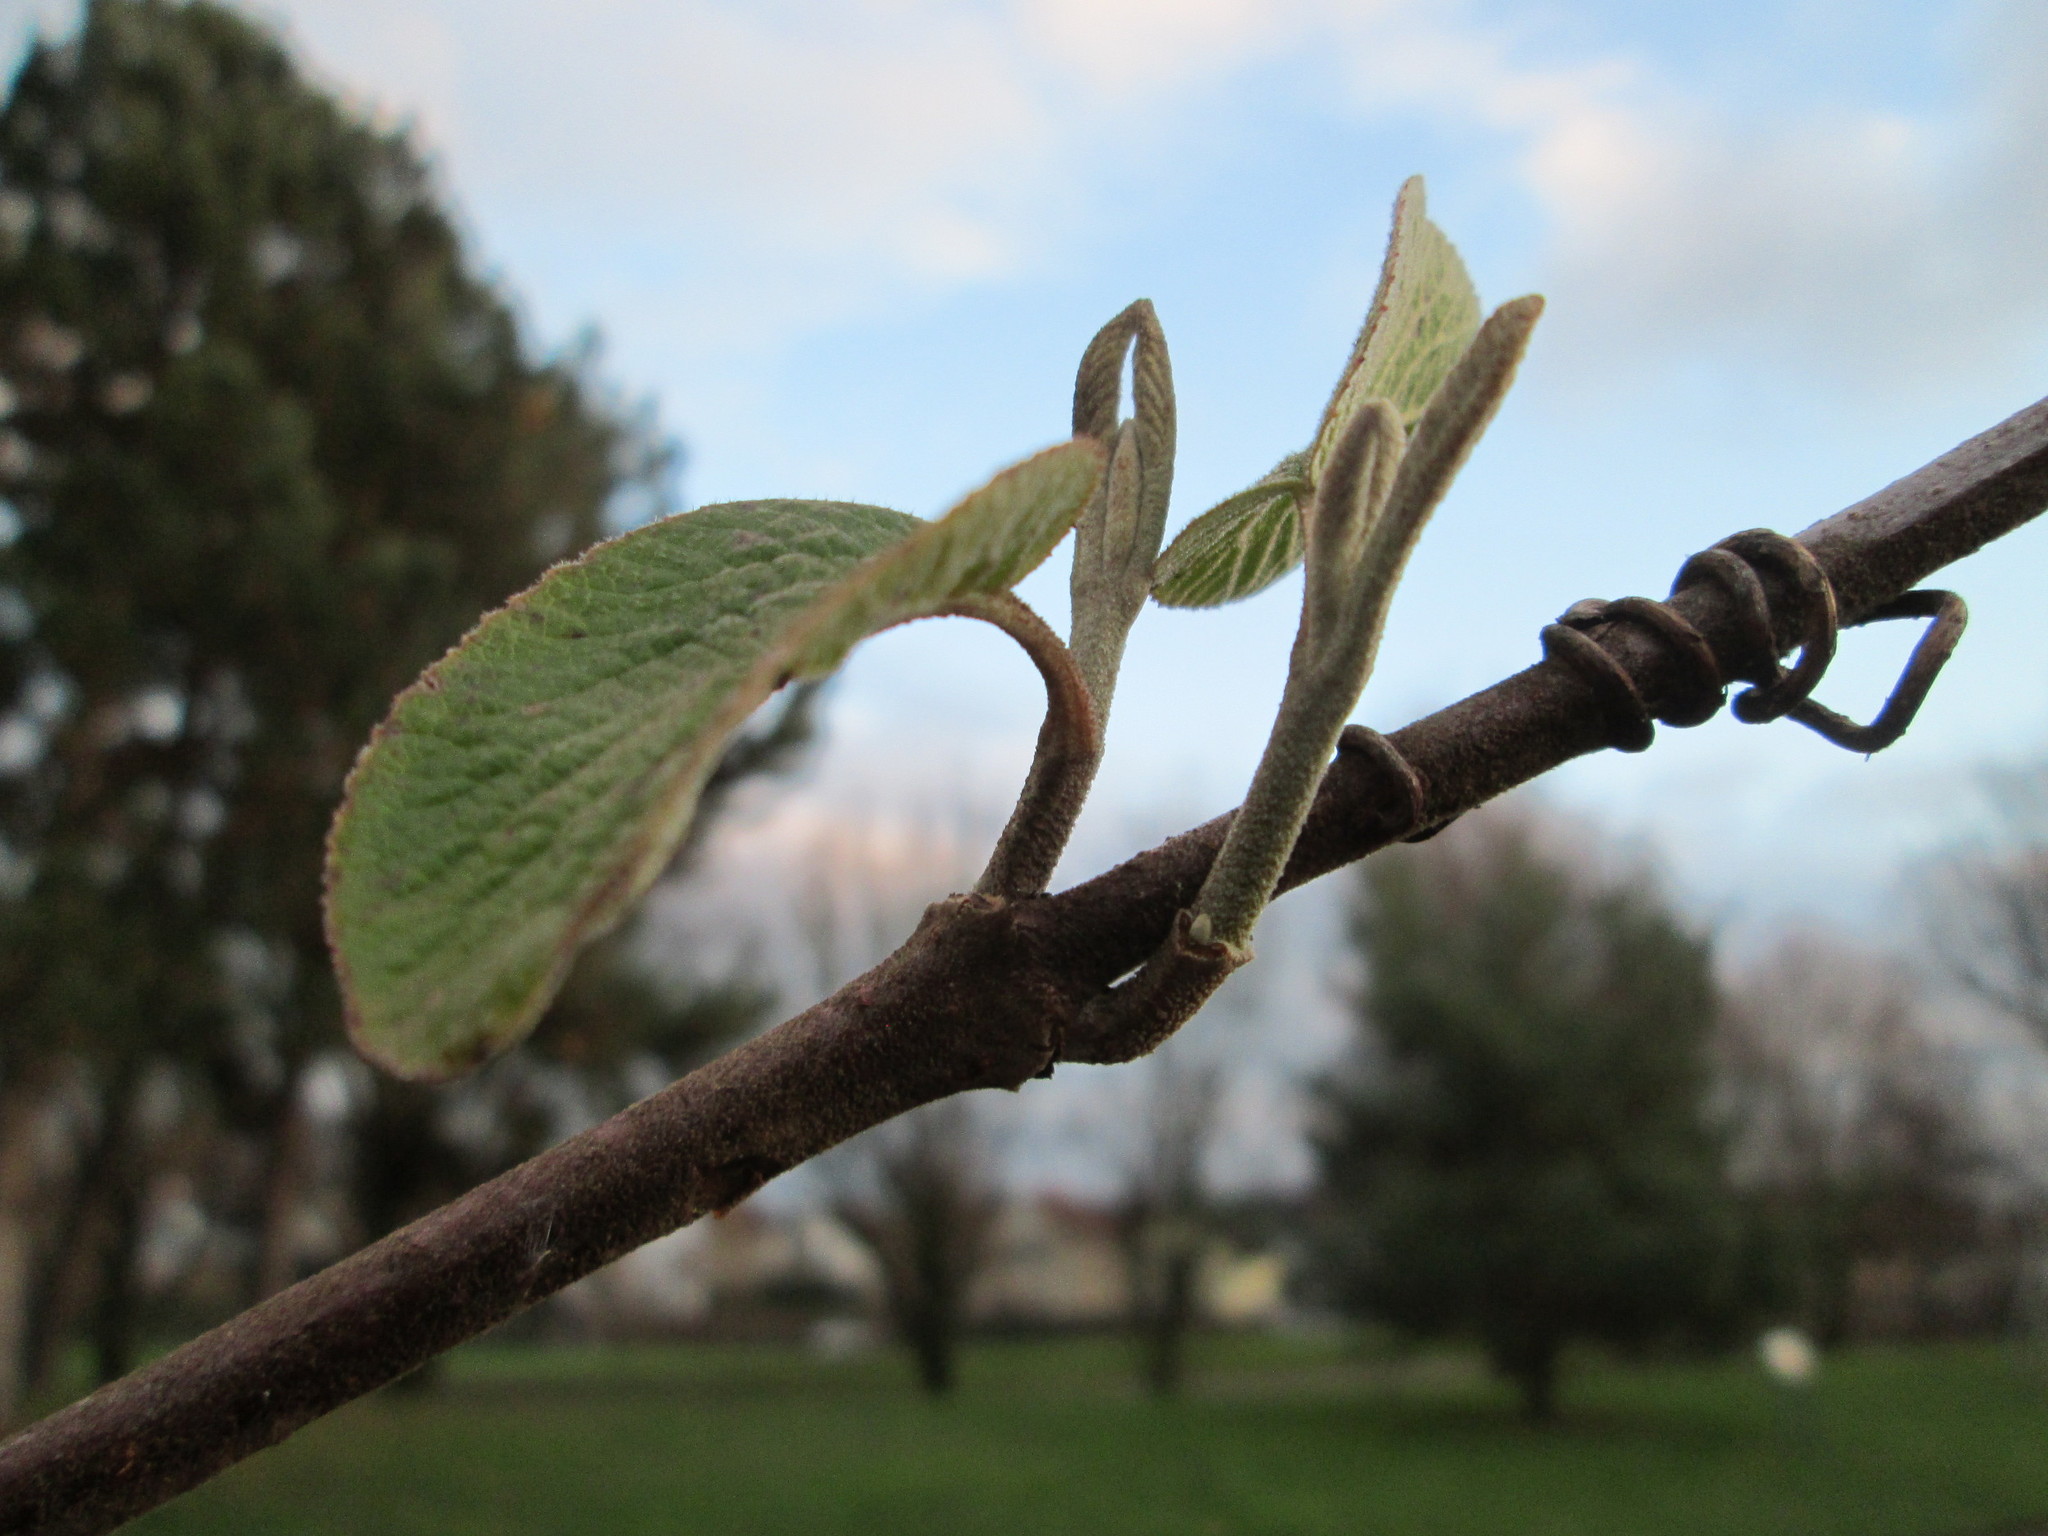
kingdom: Plantae
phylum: Tracheophyta
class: Magnoliopsida
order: Dipsacales
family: Viburnaceae
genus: Viburnum
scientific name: Viburnum lantana
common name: Wayfaring tree
